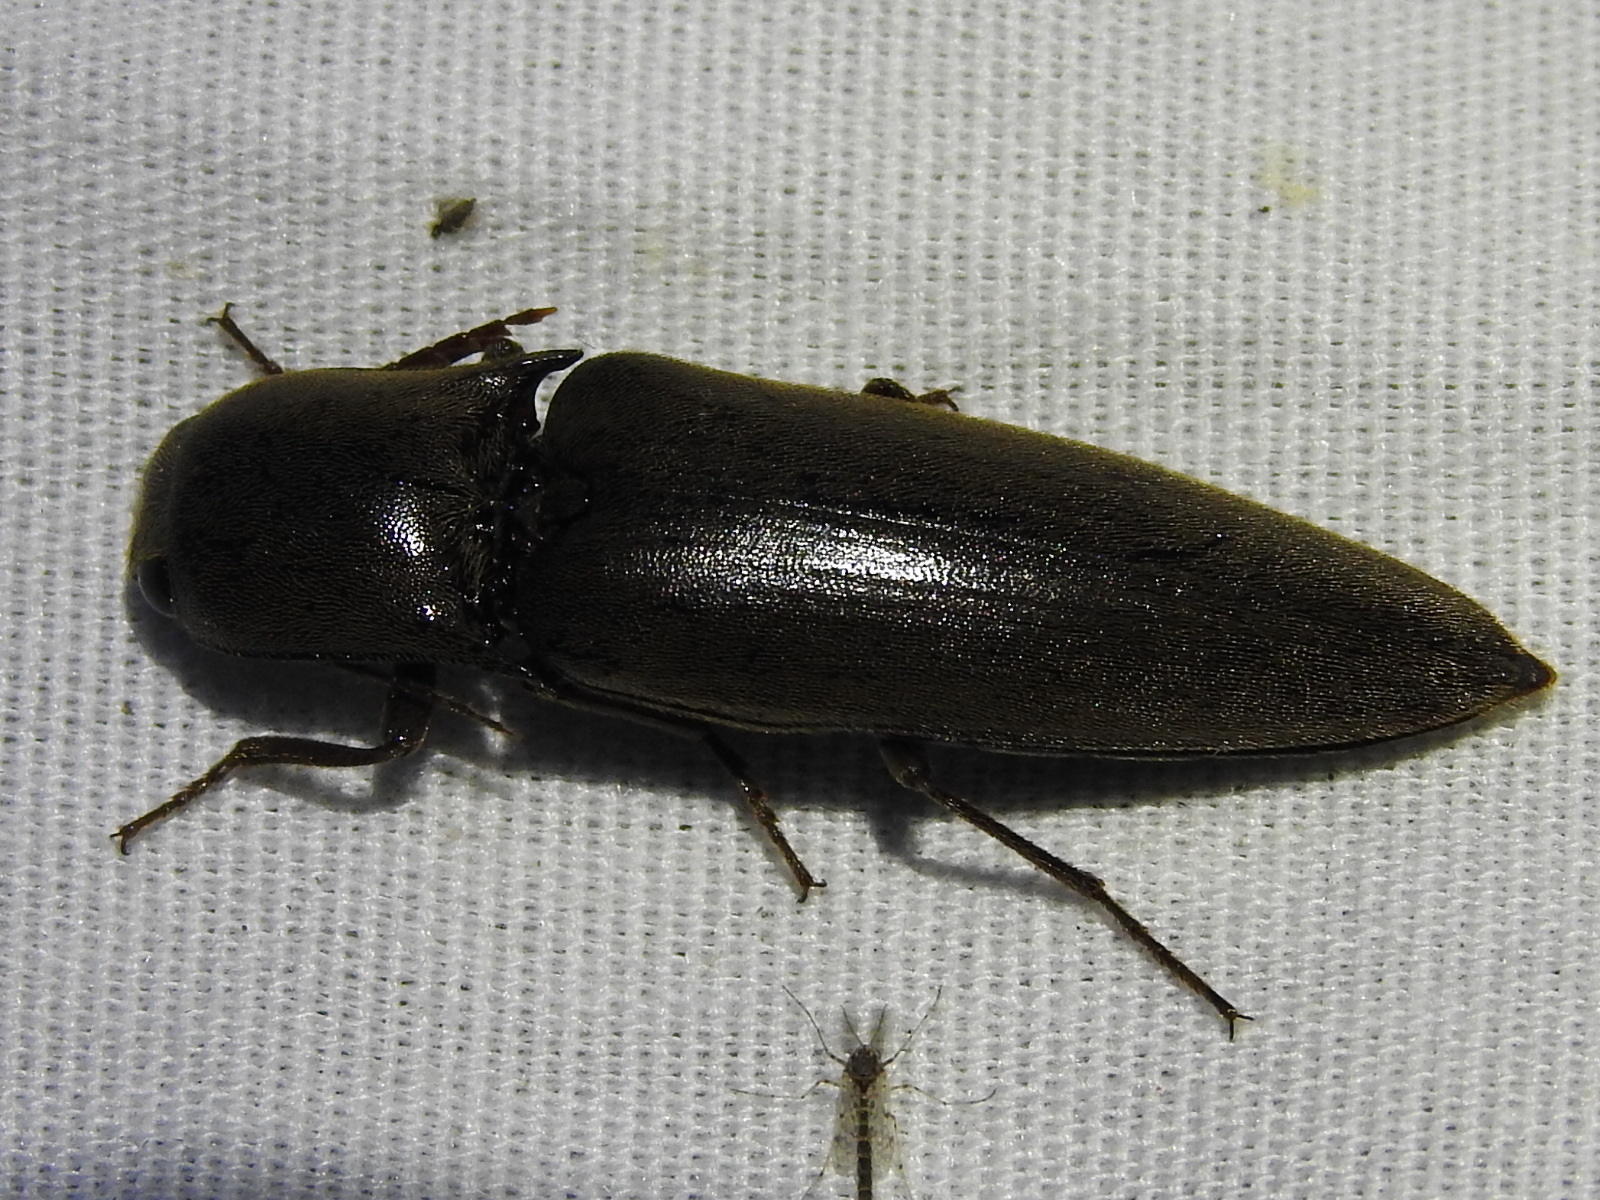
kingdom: Animalia
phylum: Arthropoda
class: Insecta
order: Coleoptera
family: Elateridae
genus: Orthostethus
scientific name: Orthostethus infuscatus
